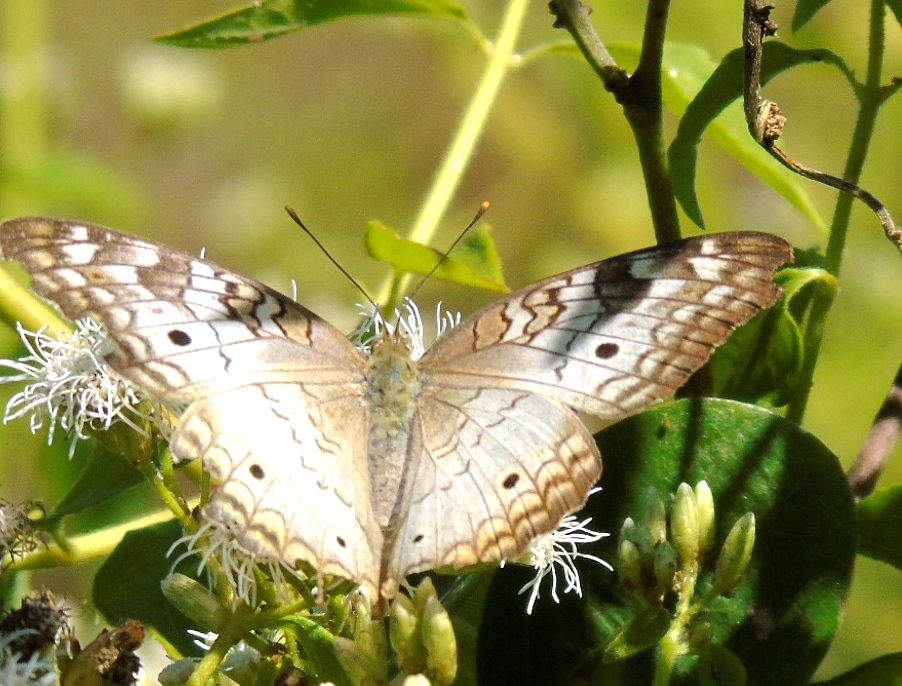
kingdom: Animalia
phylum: Arthropoda
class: Insecta
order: Lepidoptera
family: Nymphalidae
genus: Anartia
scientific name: Anartia jatrophae
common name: White peacock
